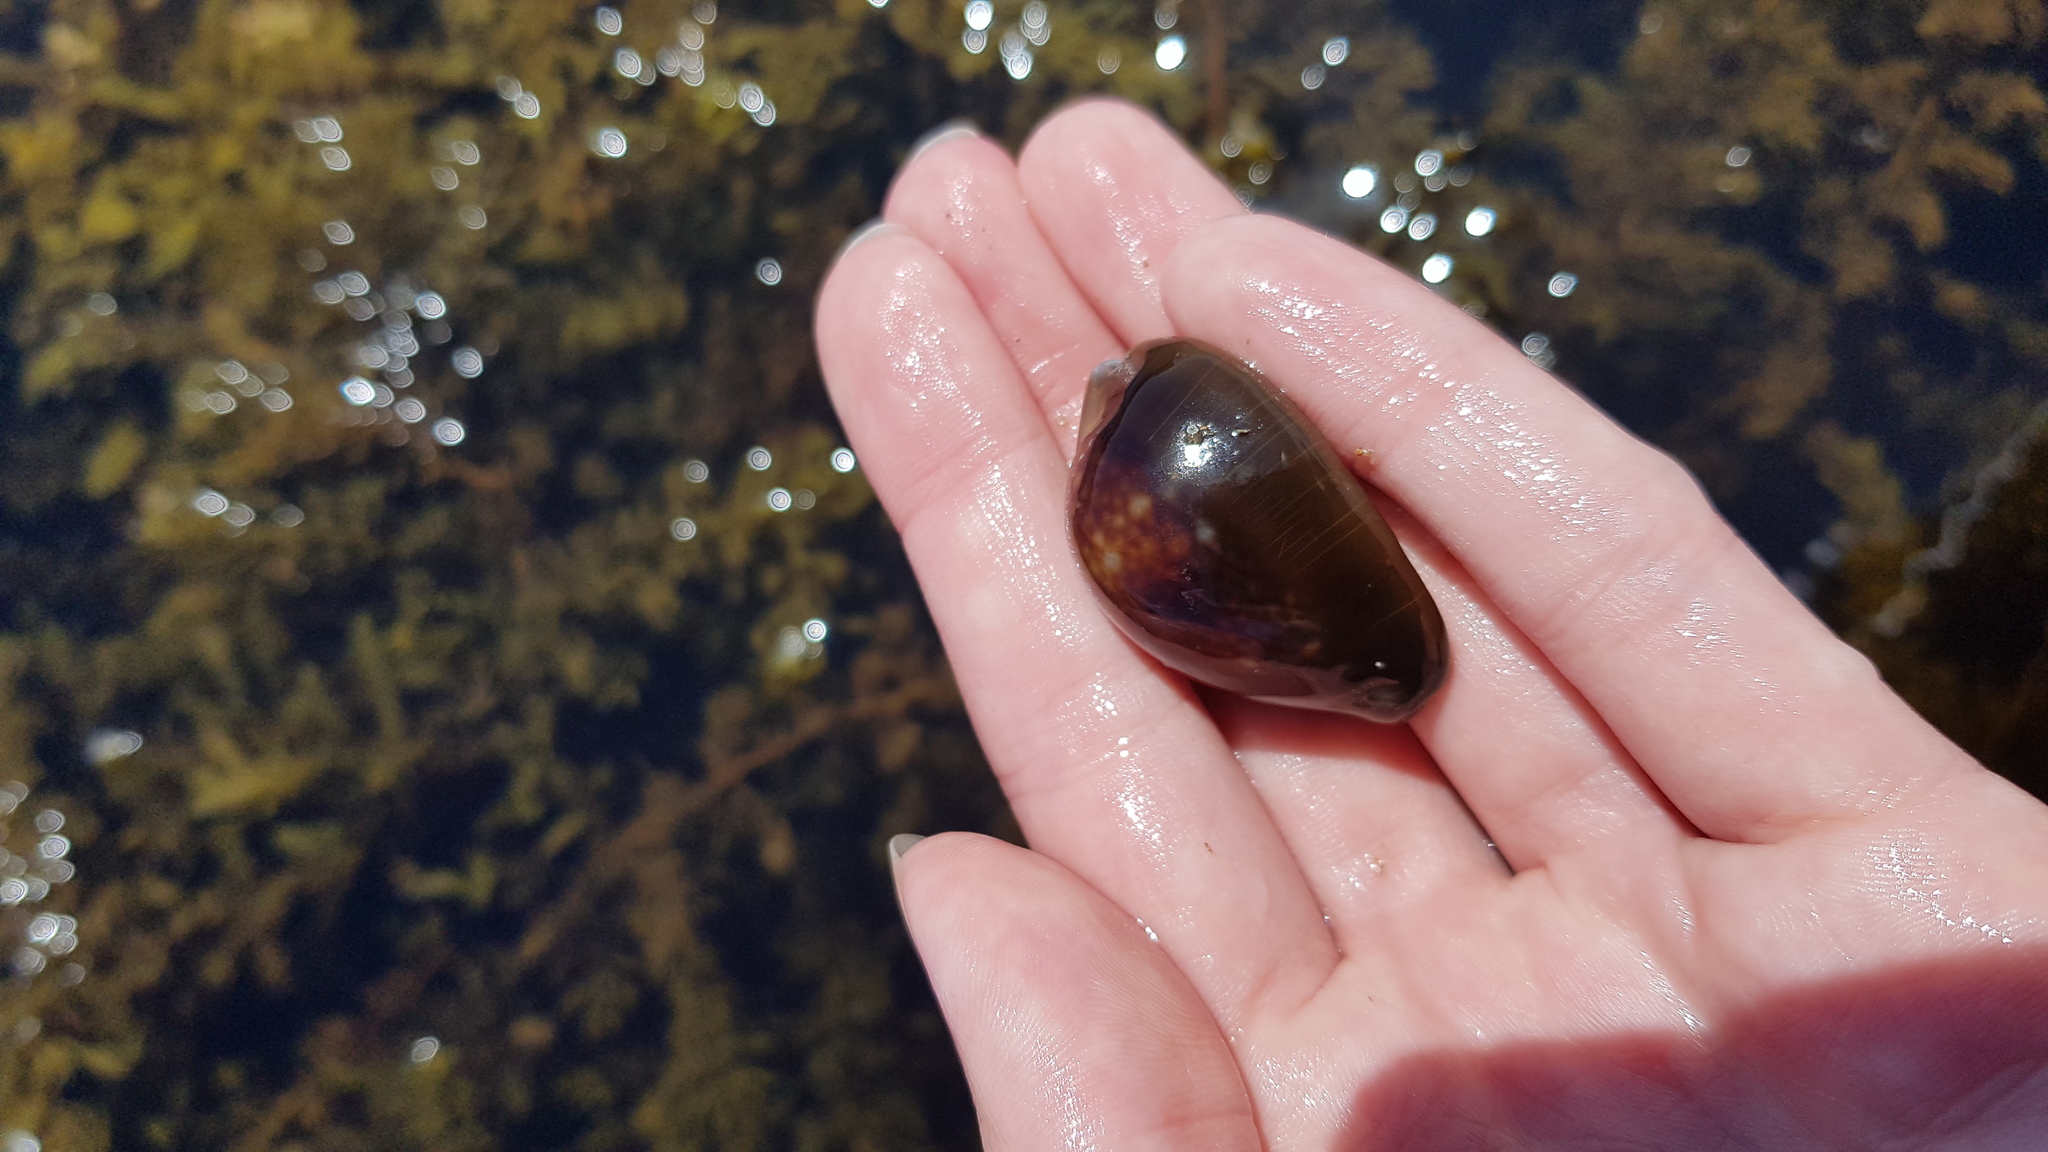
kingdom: Animalia
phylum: Mollusca
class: Gastropoda
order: Littorinimorpha
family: Cypraeidae
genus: Monetaria
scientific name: Monetaria caputserpentis
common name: Serpent's head cowrie
